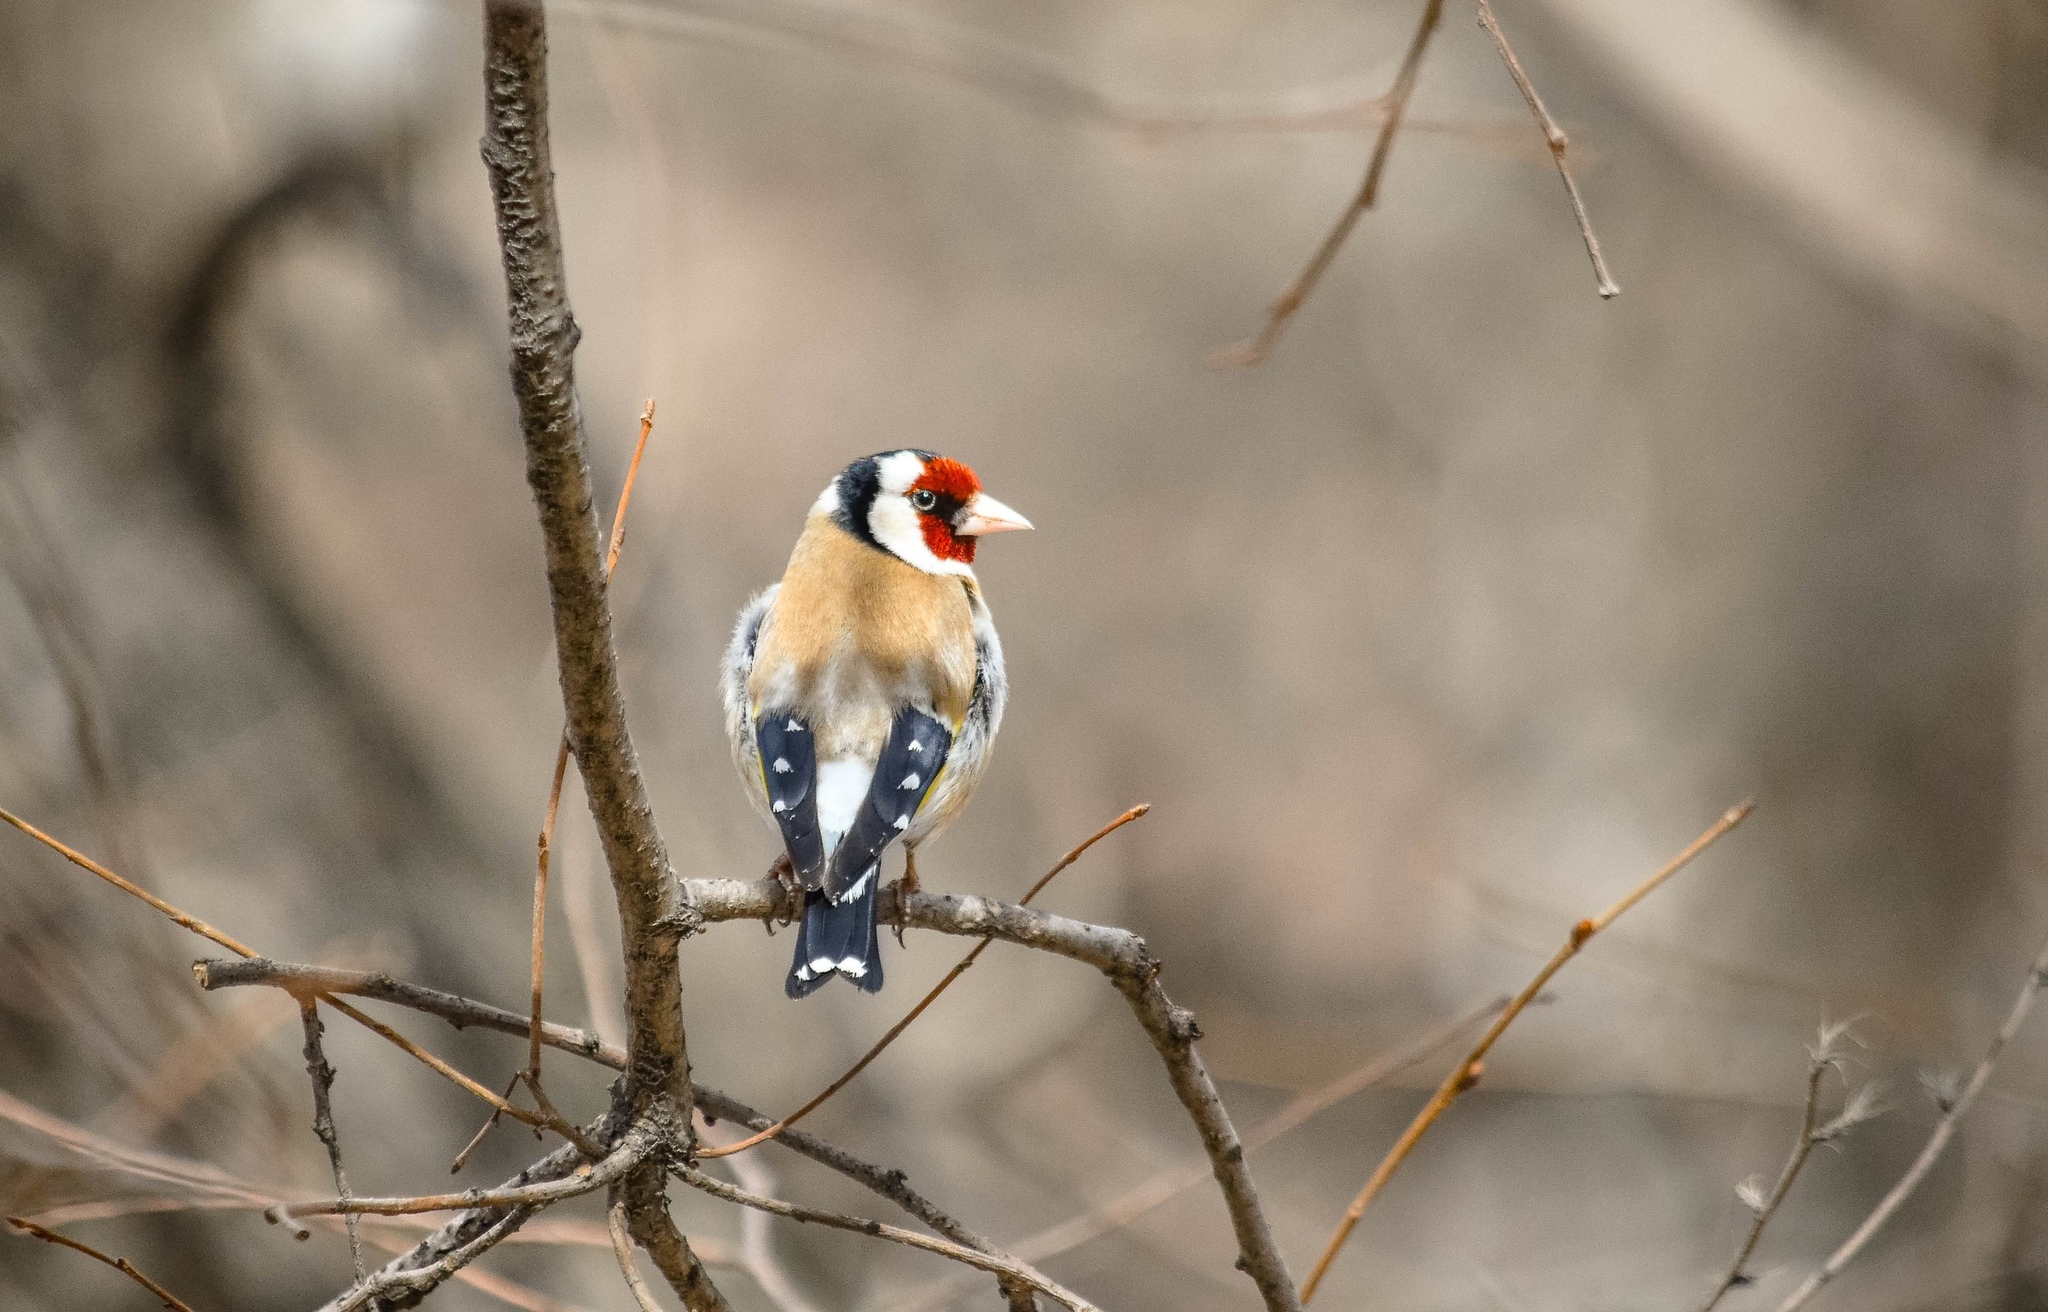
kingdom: Animalia
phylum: Chordata
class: Aves
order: Passeriformes
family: Fringillidae
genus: Carduelis
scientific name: Carduelis carduelis
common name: European goldfinch
